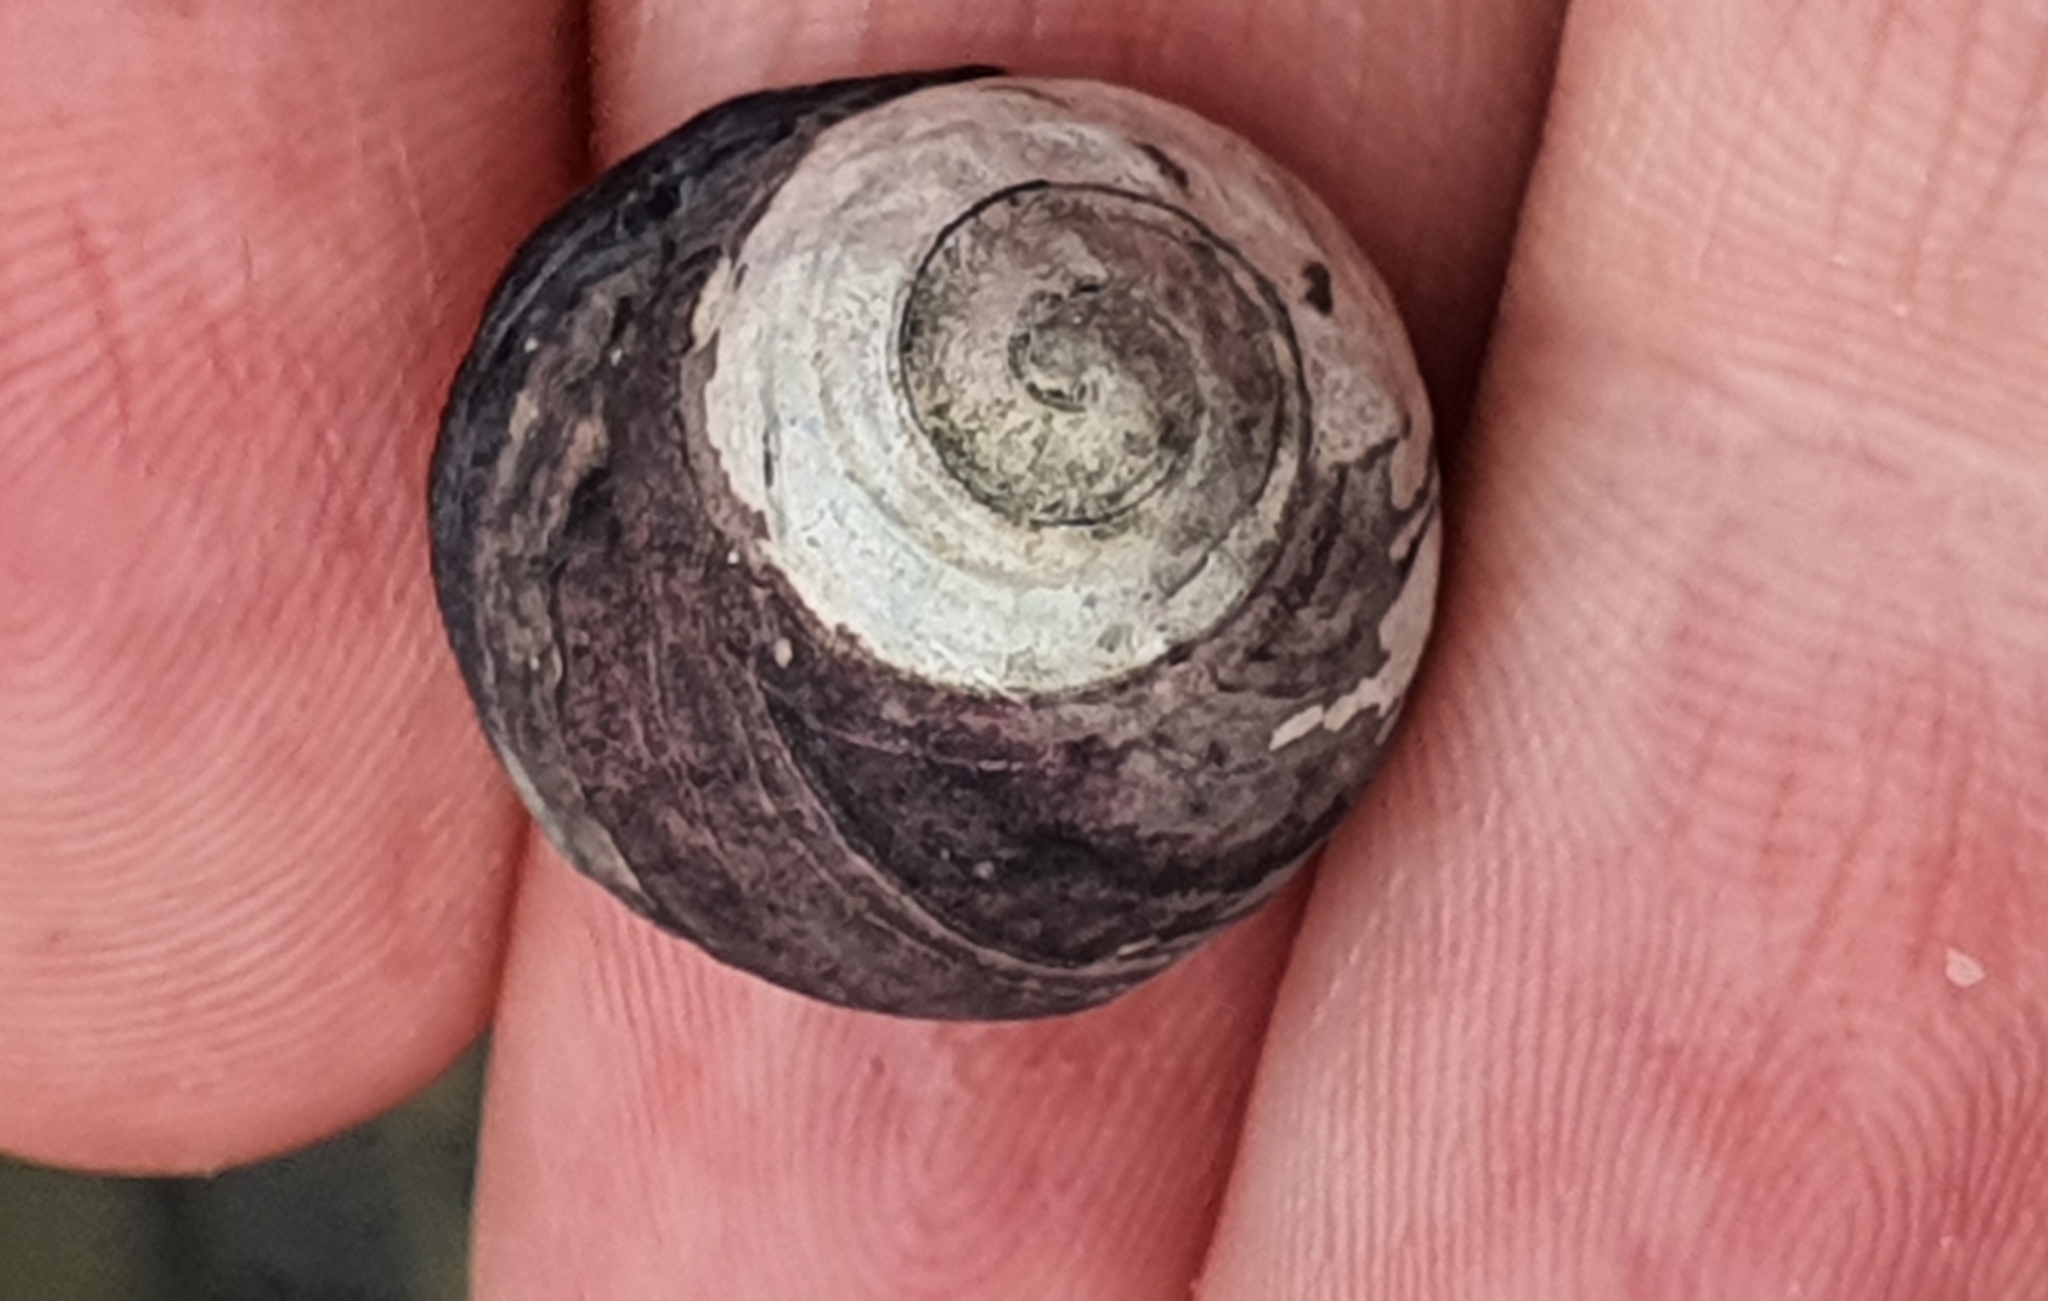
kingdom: Animalia
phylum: Mollusca
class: Gastropoda
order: Trochida
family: Trochidae
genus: Diloma
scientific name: Diloma zelandicum
